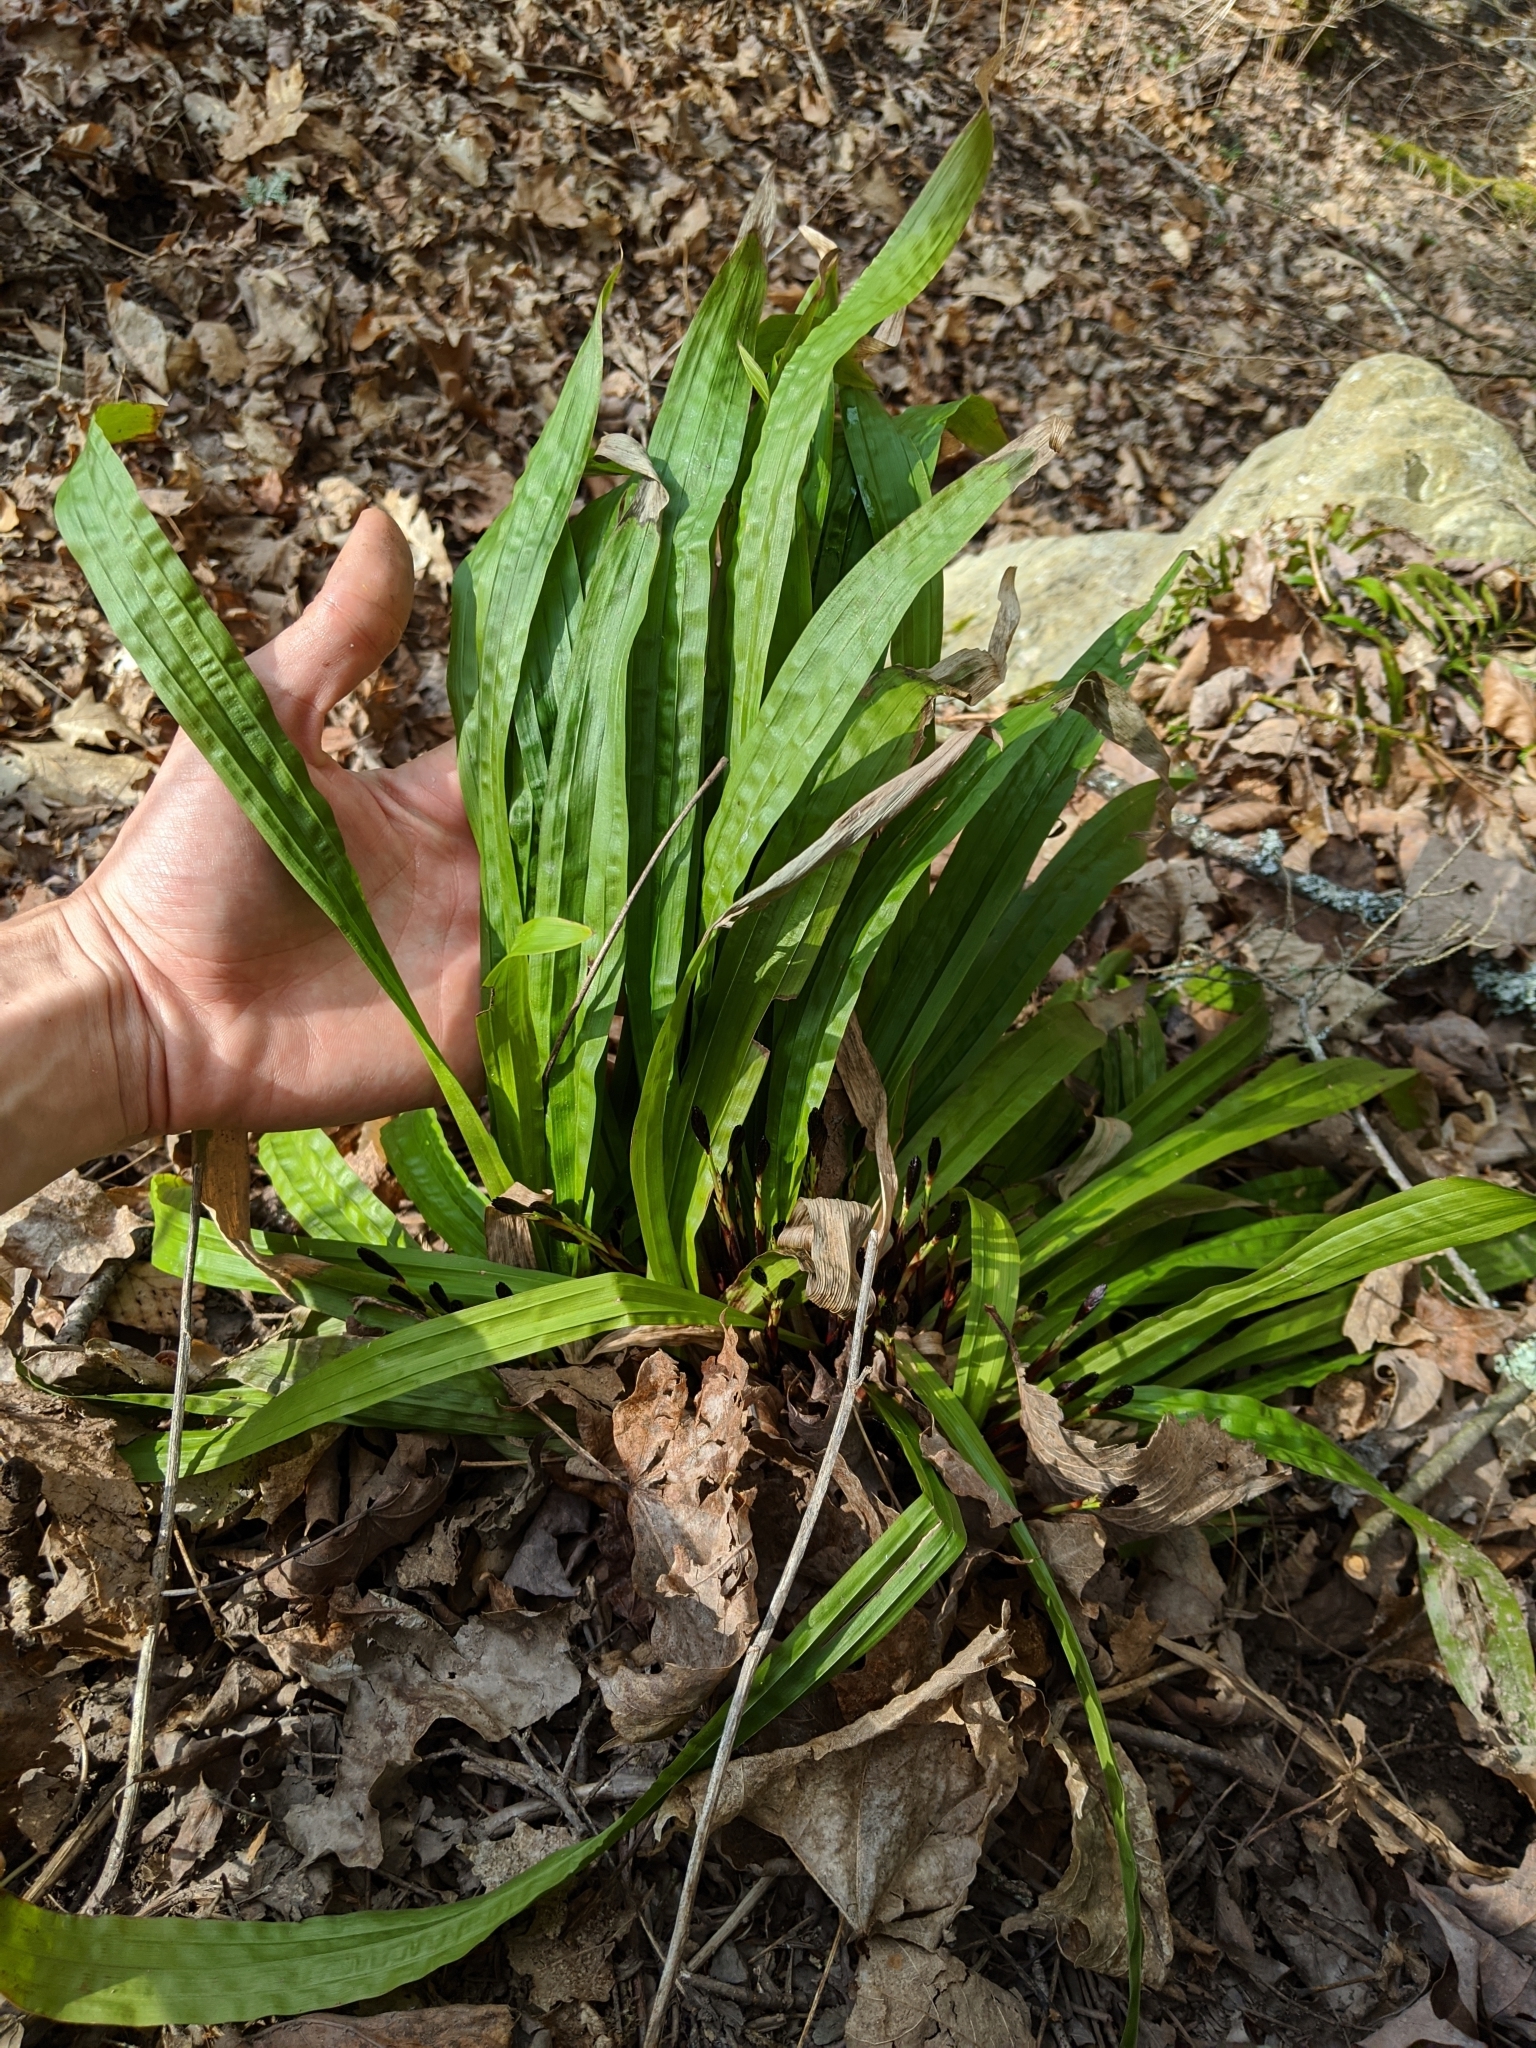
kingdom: Plantae
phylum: Tracheophyta
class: Liliopsida
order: Poales
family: Cyperaceae
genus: Carex
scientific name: Carex plantaginea
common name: Plantain-leaved sedge
